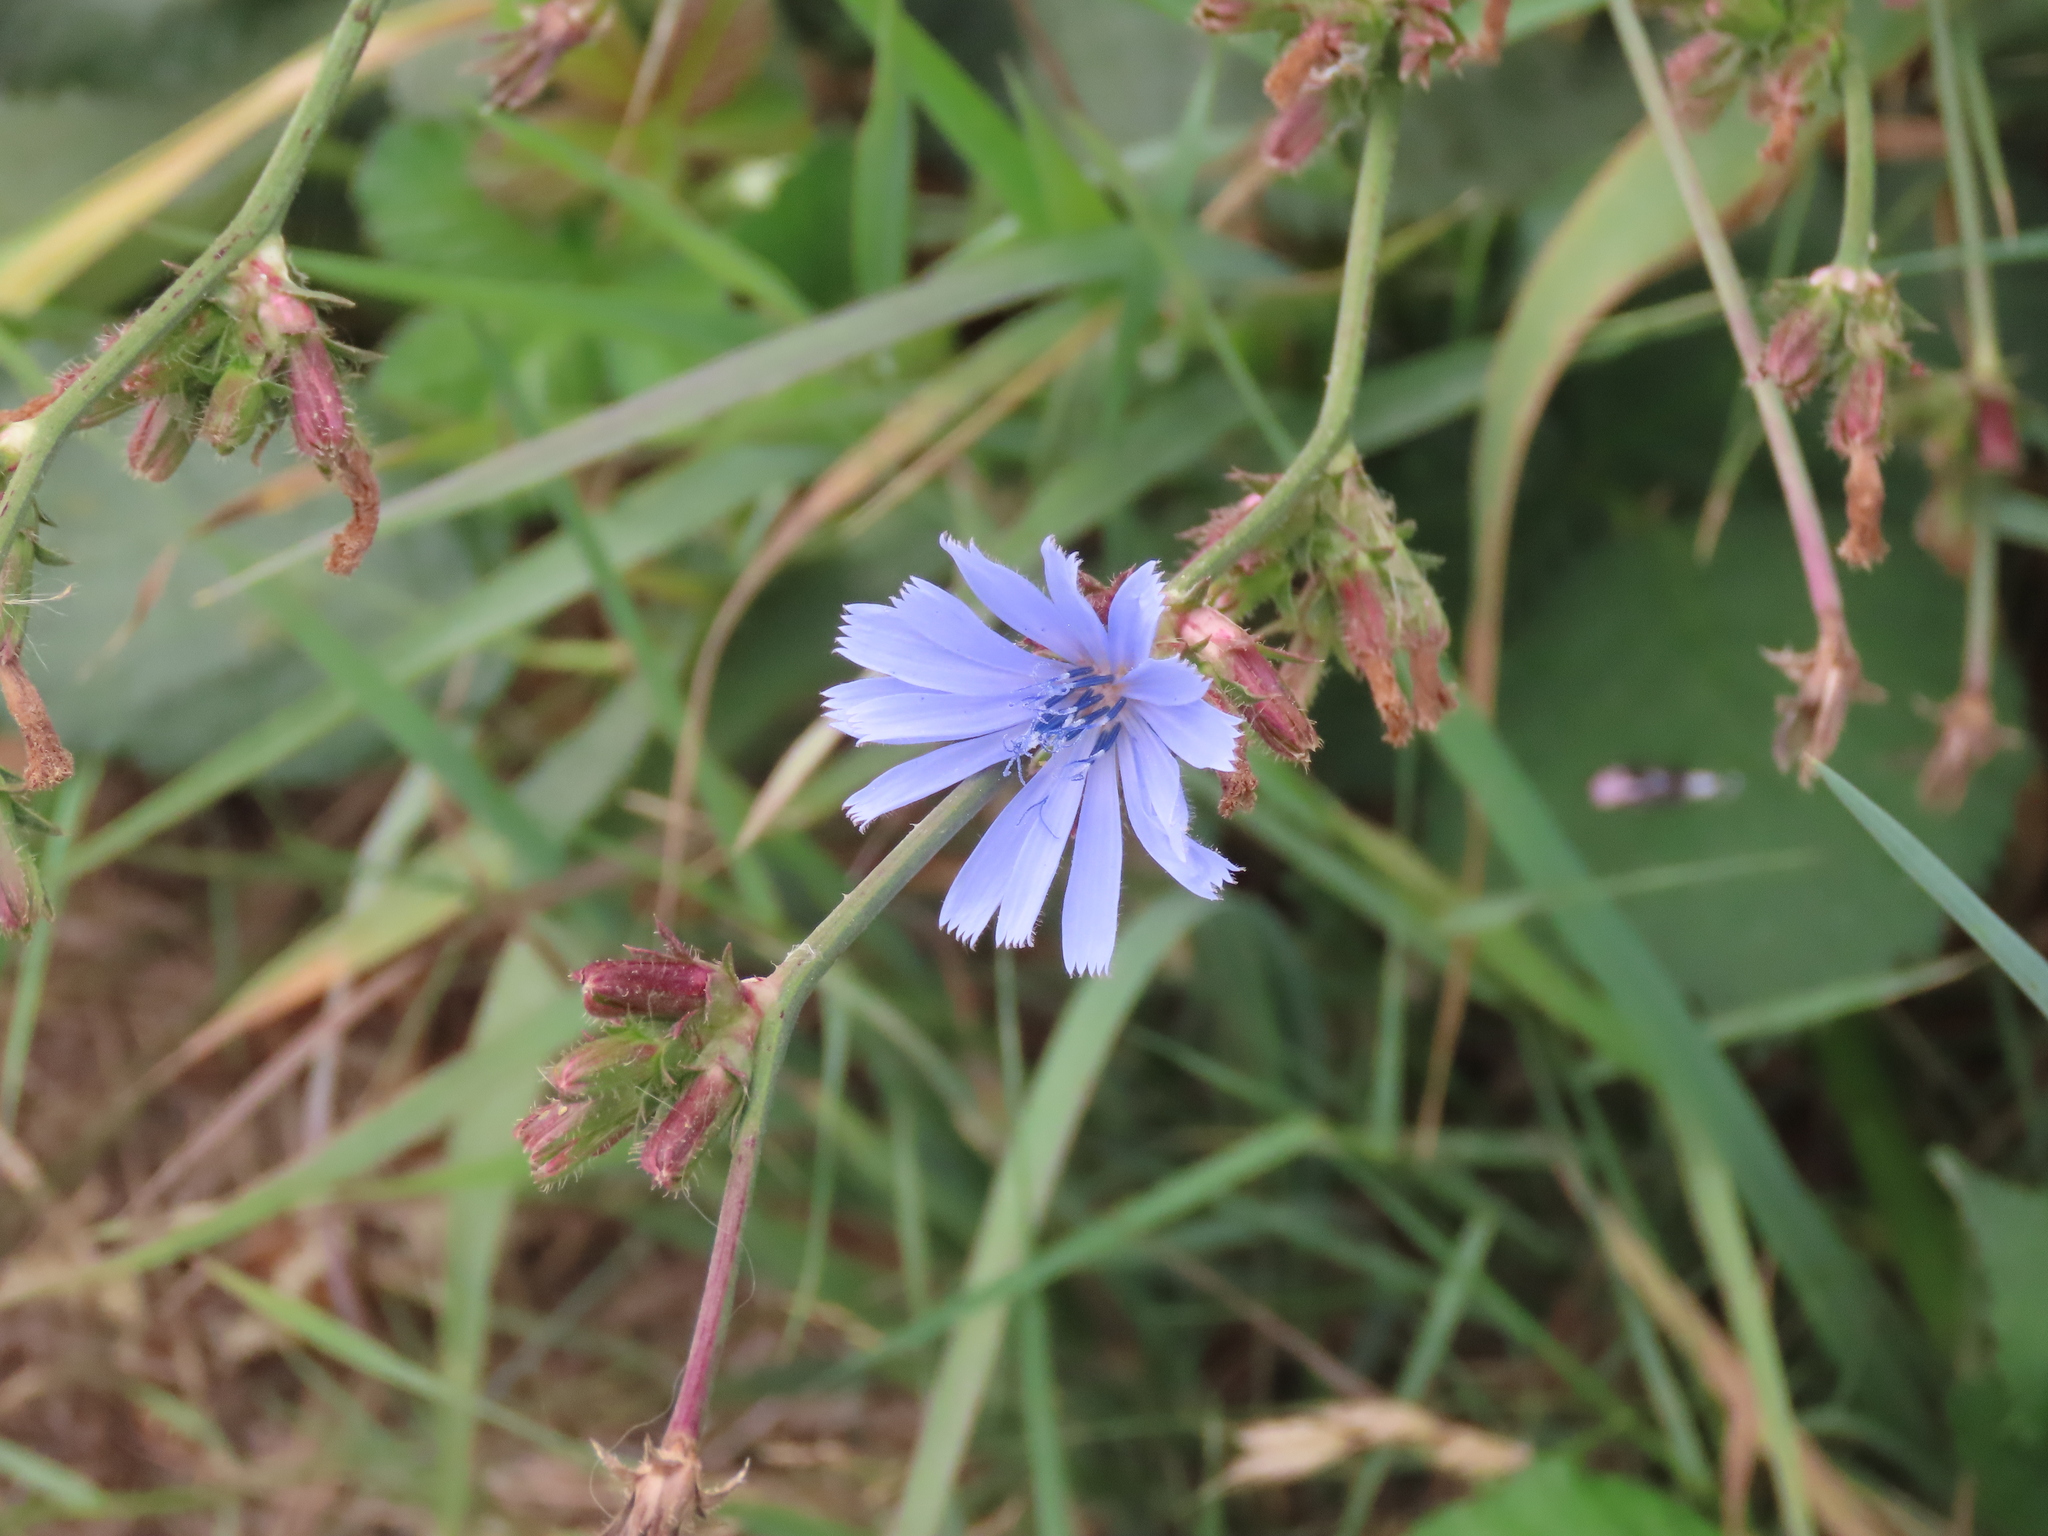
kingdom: Plantae
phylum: Tracheophyta
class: Magnoliopsida
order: Asterales
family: Asteraceae
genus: Cichorium
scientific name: Cichorium intybus
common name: Chicory
